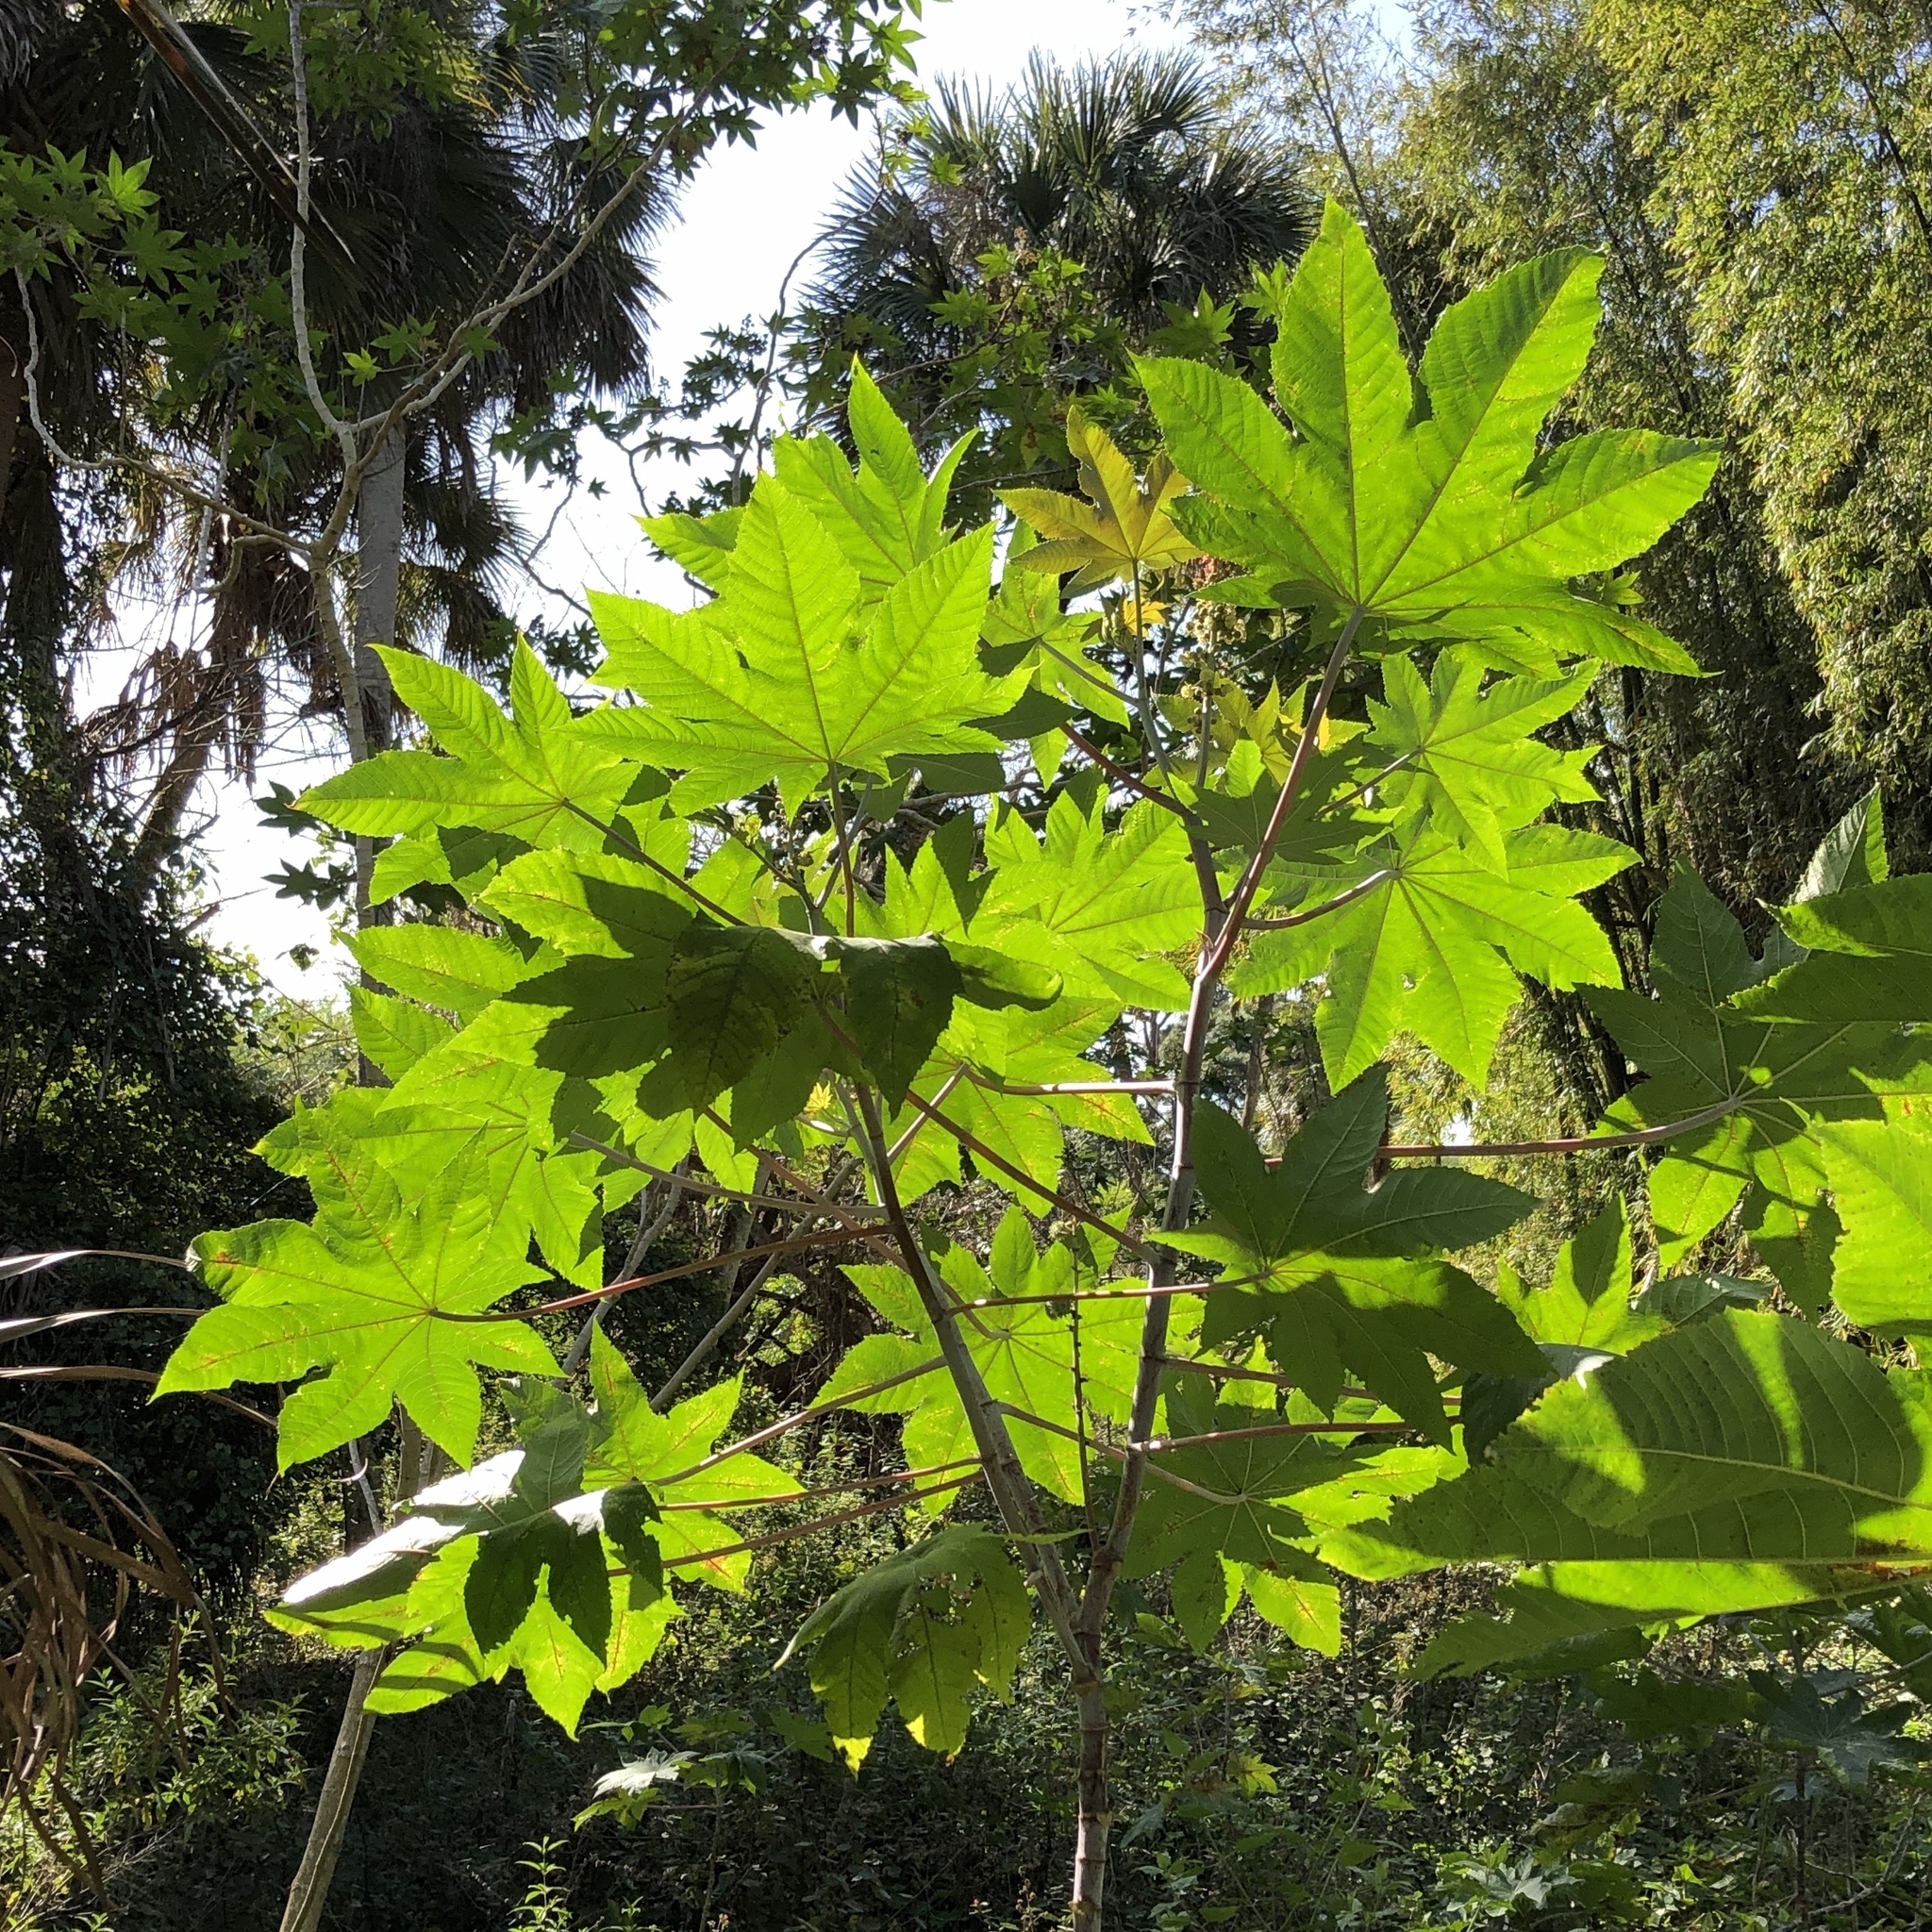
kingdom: Plantae
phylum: Tracheophyta
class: Magnoliopsida
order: Malpighiales
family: Euphorbiaceae
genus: Ricinus
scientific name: Ricinus communis
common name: Castor-oil-plant
